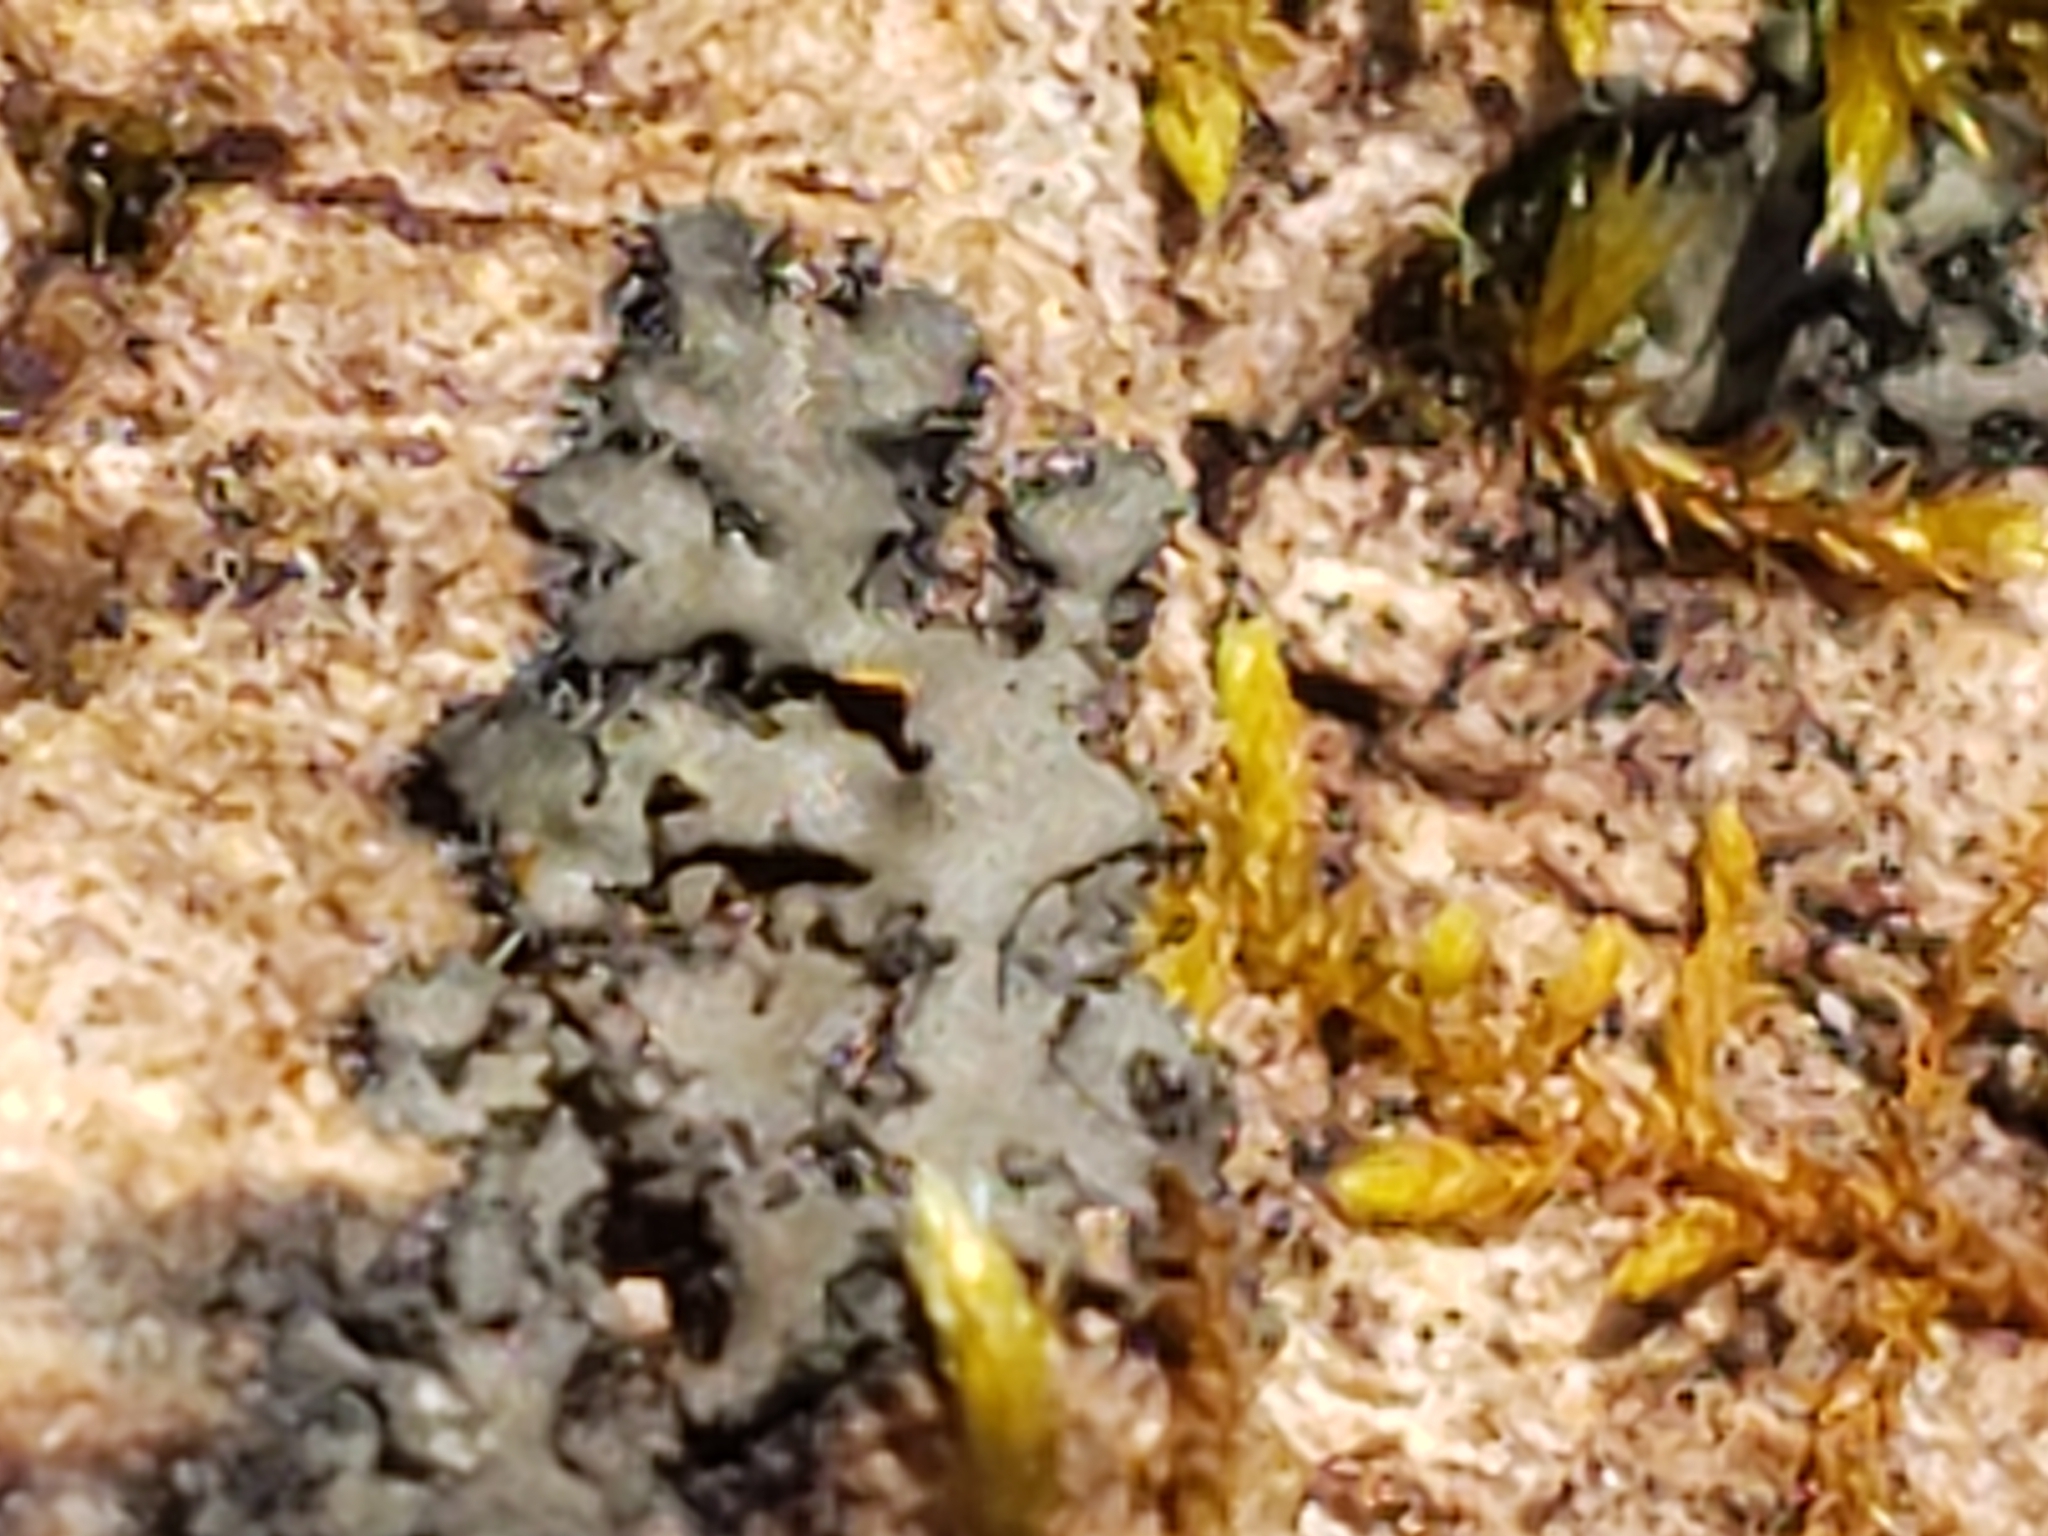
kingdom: Fungi
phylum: Ascomycota
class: Lecanoromycetes
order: Caliciales
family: Physciaceae
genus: Phaeophyscia
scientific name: Phaeophyscia rubropulchra
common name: Orange-cored shadow lichen
